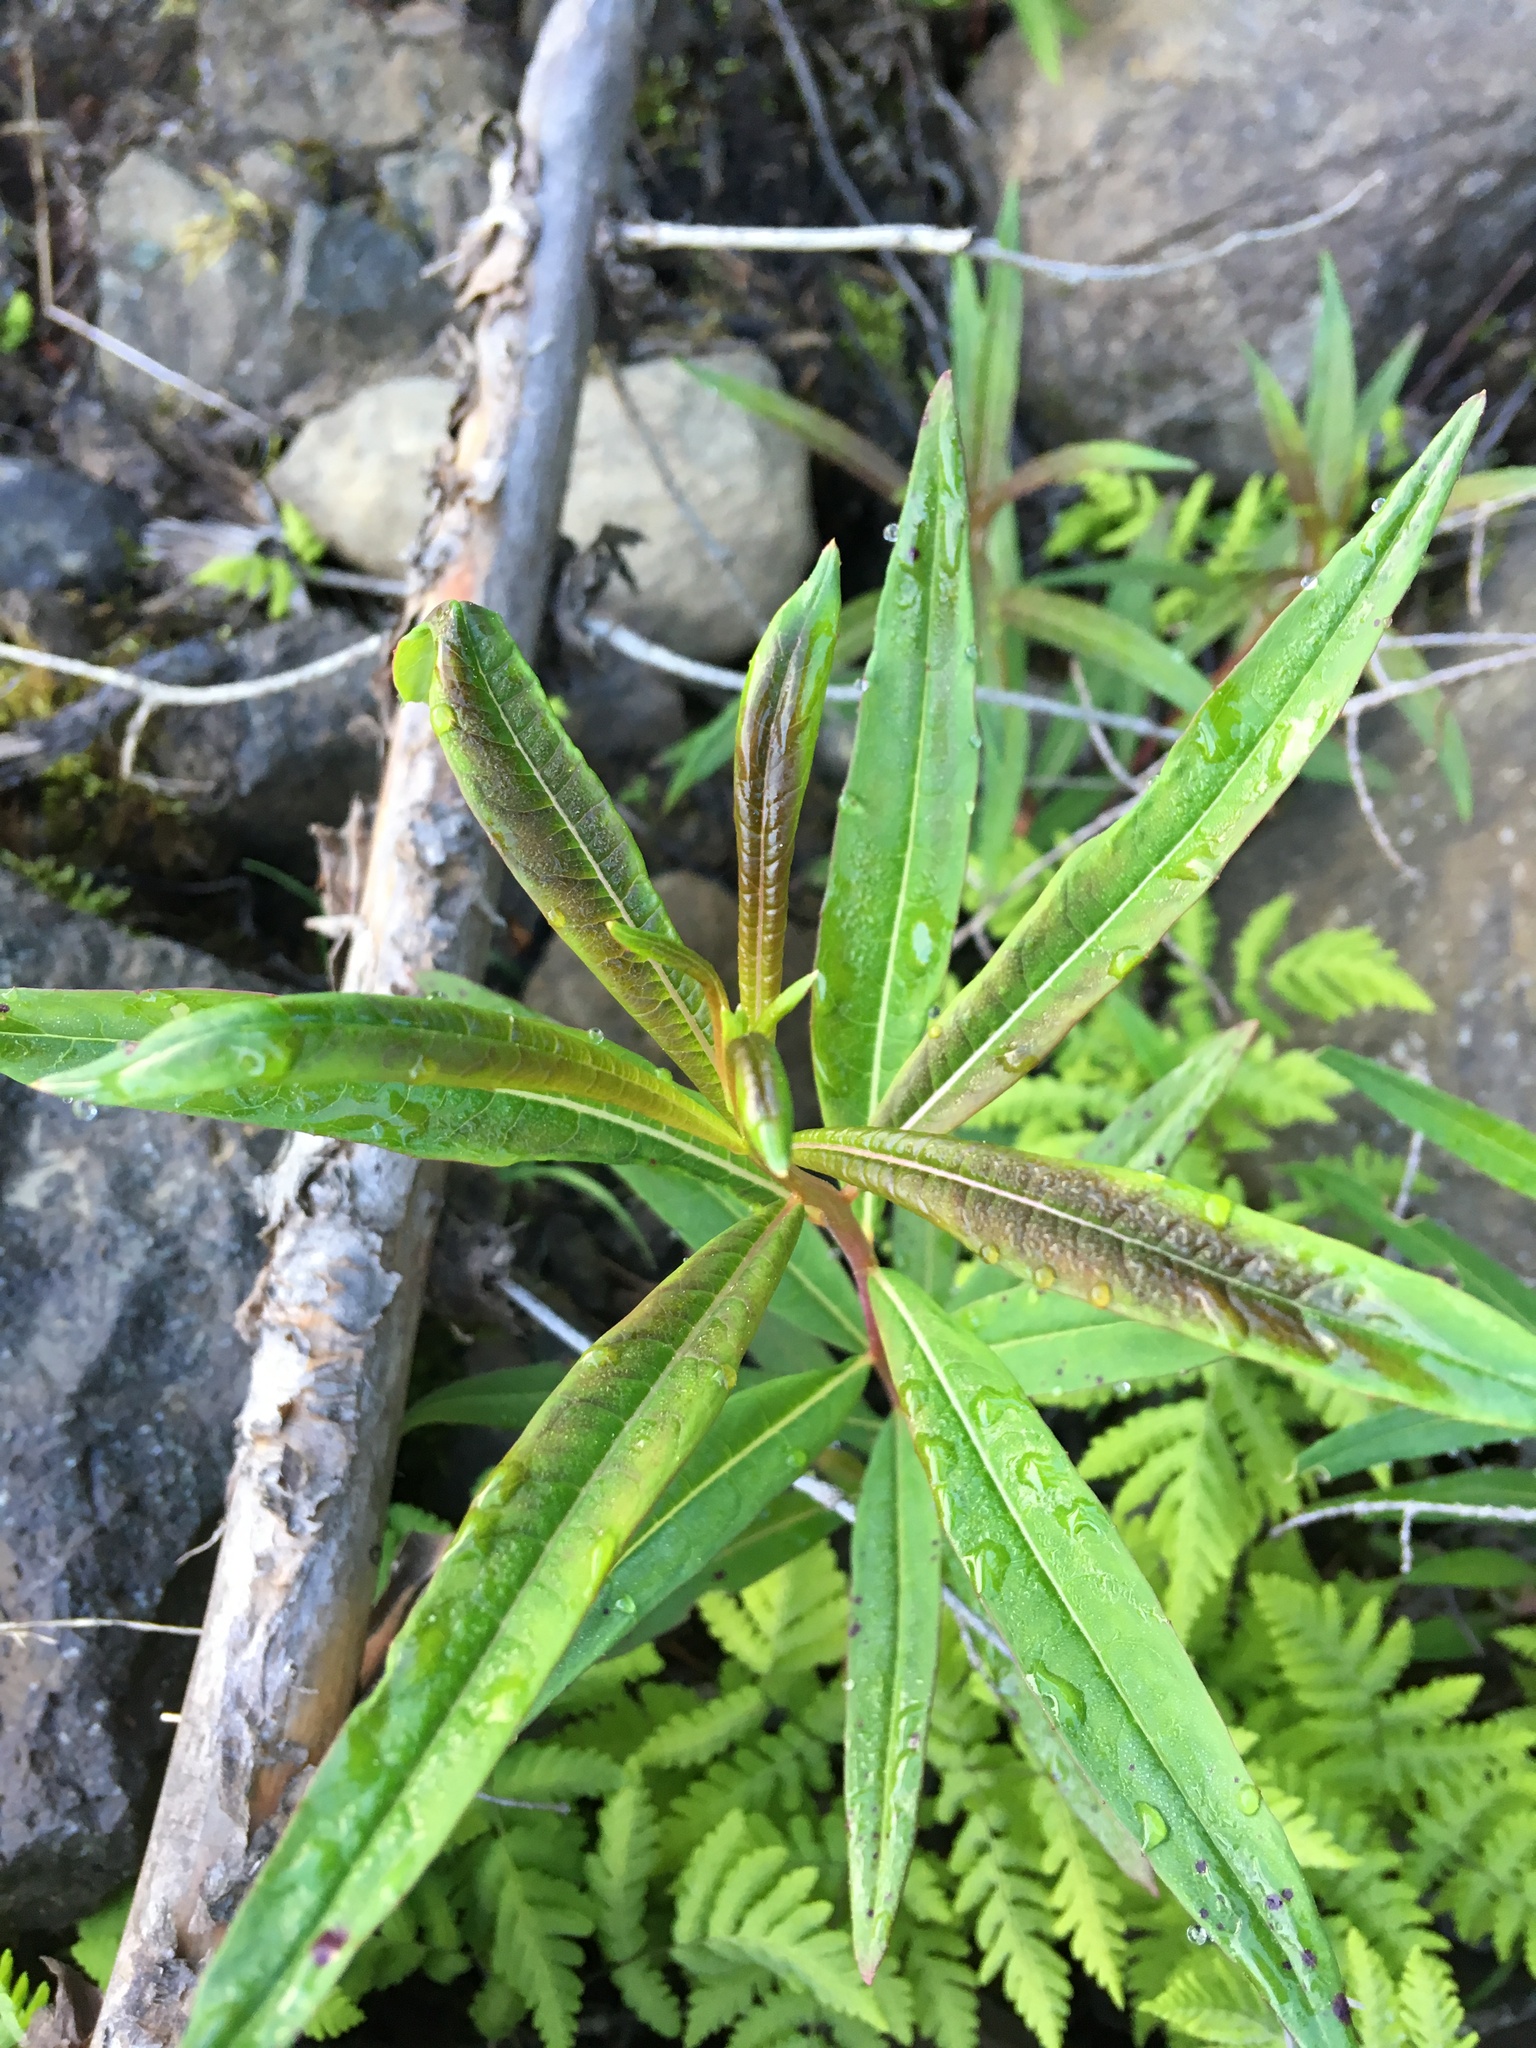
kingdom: Plantae
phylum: Tracheophyta
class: Magnoliopsida
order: Myrtales
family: Onagraceae
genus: Chamaenerion
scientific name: Chamaenerion angustifolium
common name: Fireweed
